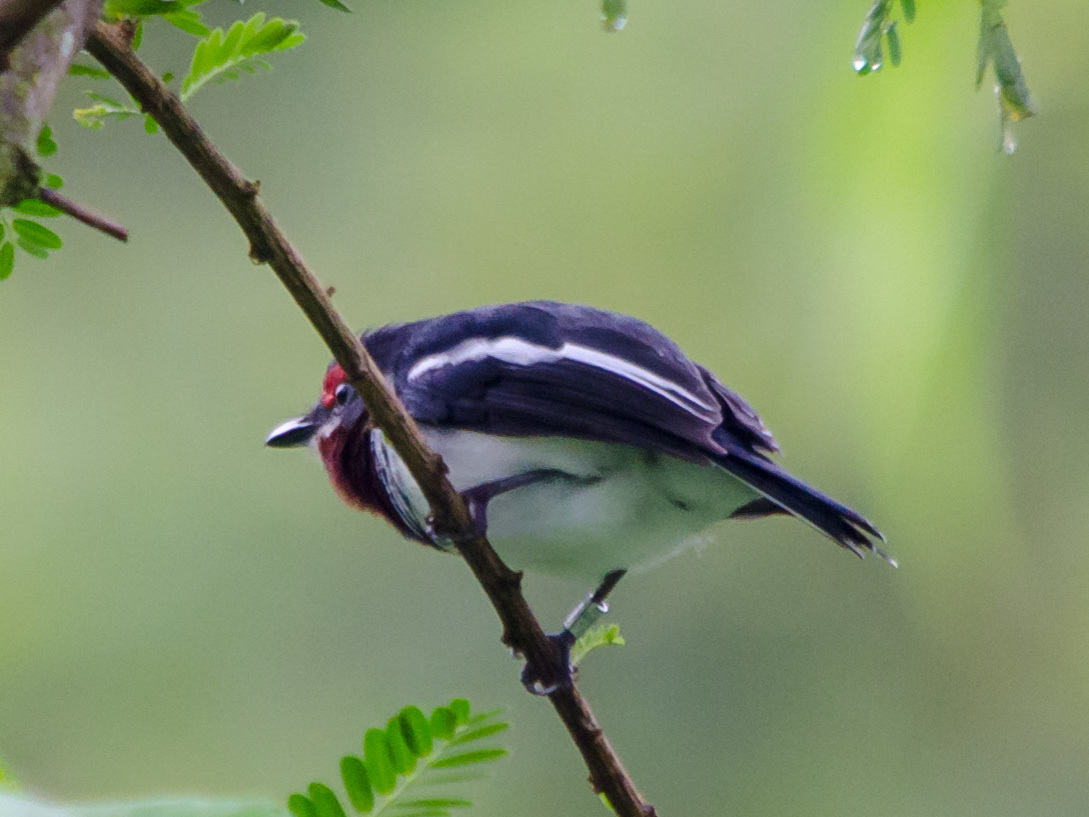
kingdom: Animalia
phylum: Chordata
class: Aves
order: Passeriformes
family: Platysteiridae
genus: Platysteira
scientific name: Platysteira cyanea
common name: Brown-throated wattle-eye
